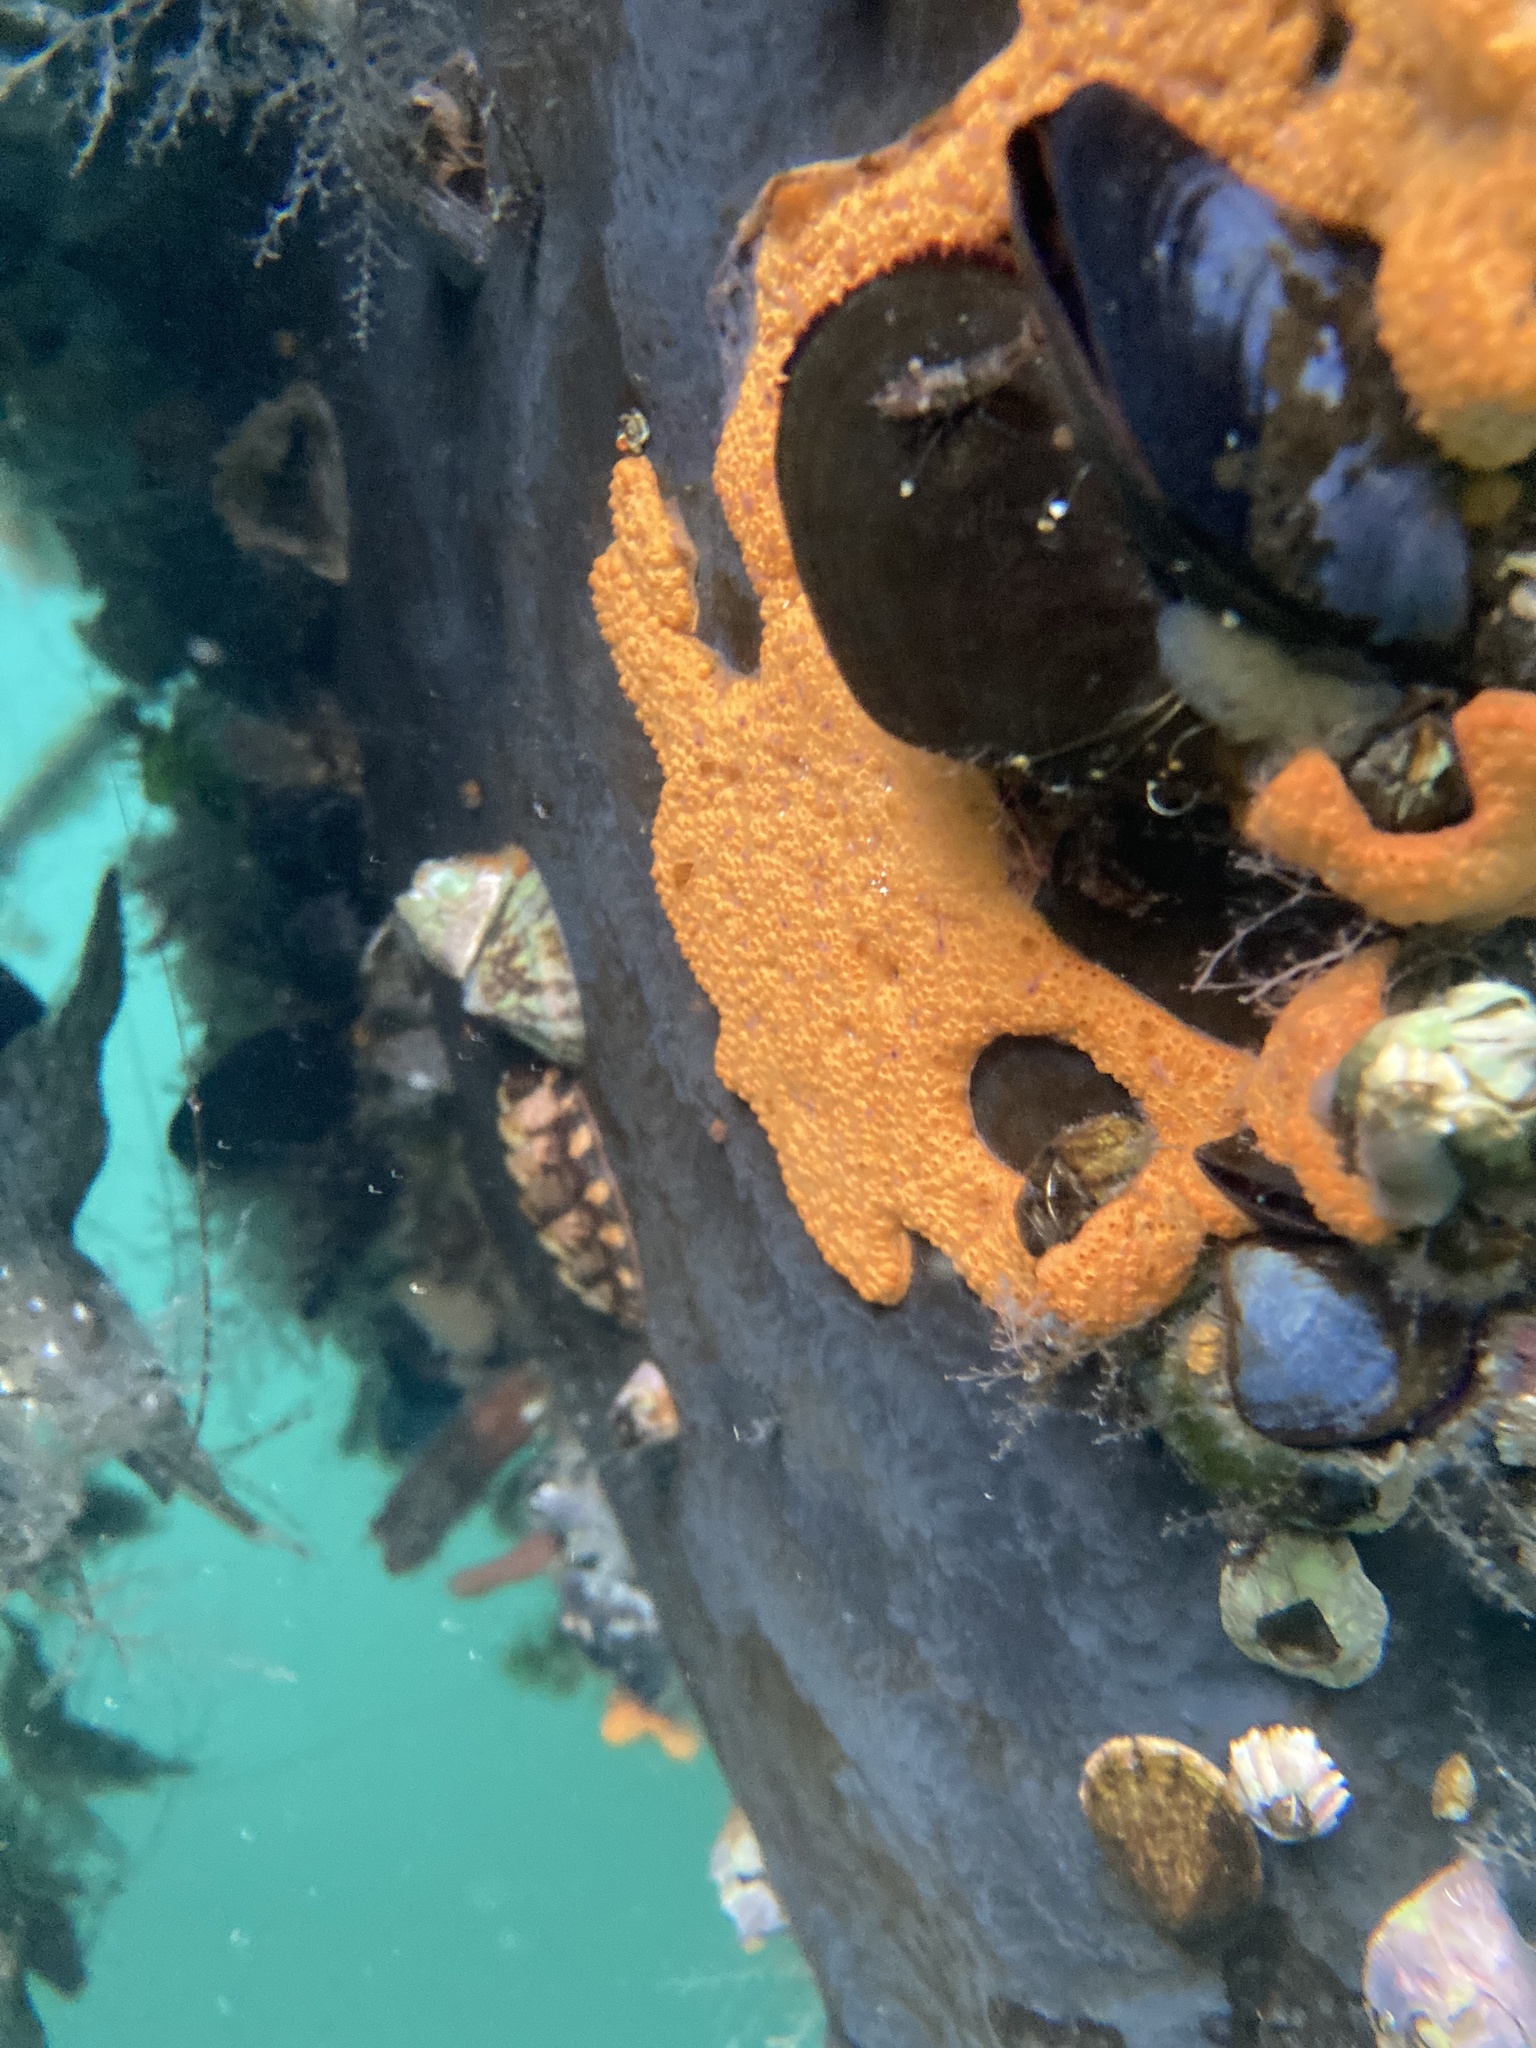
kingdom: Animalia
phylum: Chordata
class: Ascidiacea
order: Stolidobranchia
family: Styelidae
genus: Botrylloides
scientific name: Botrylloides violaceus
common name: Colonial sea squirt
